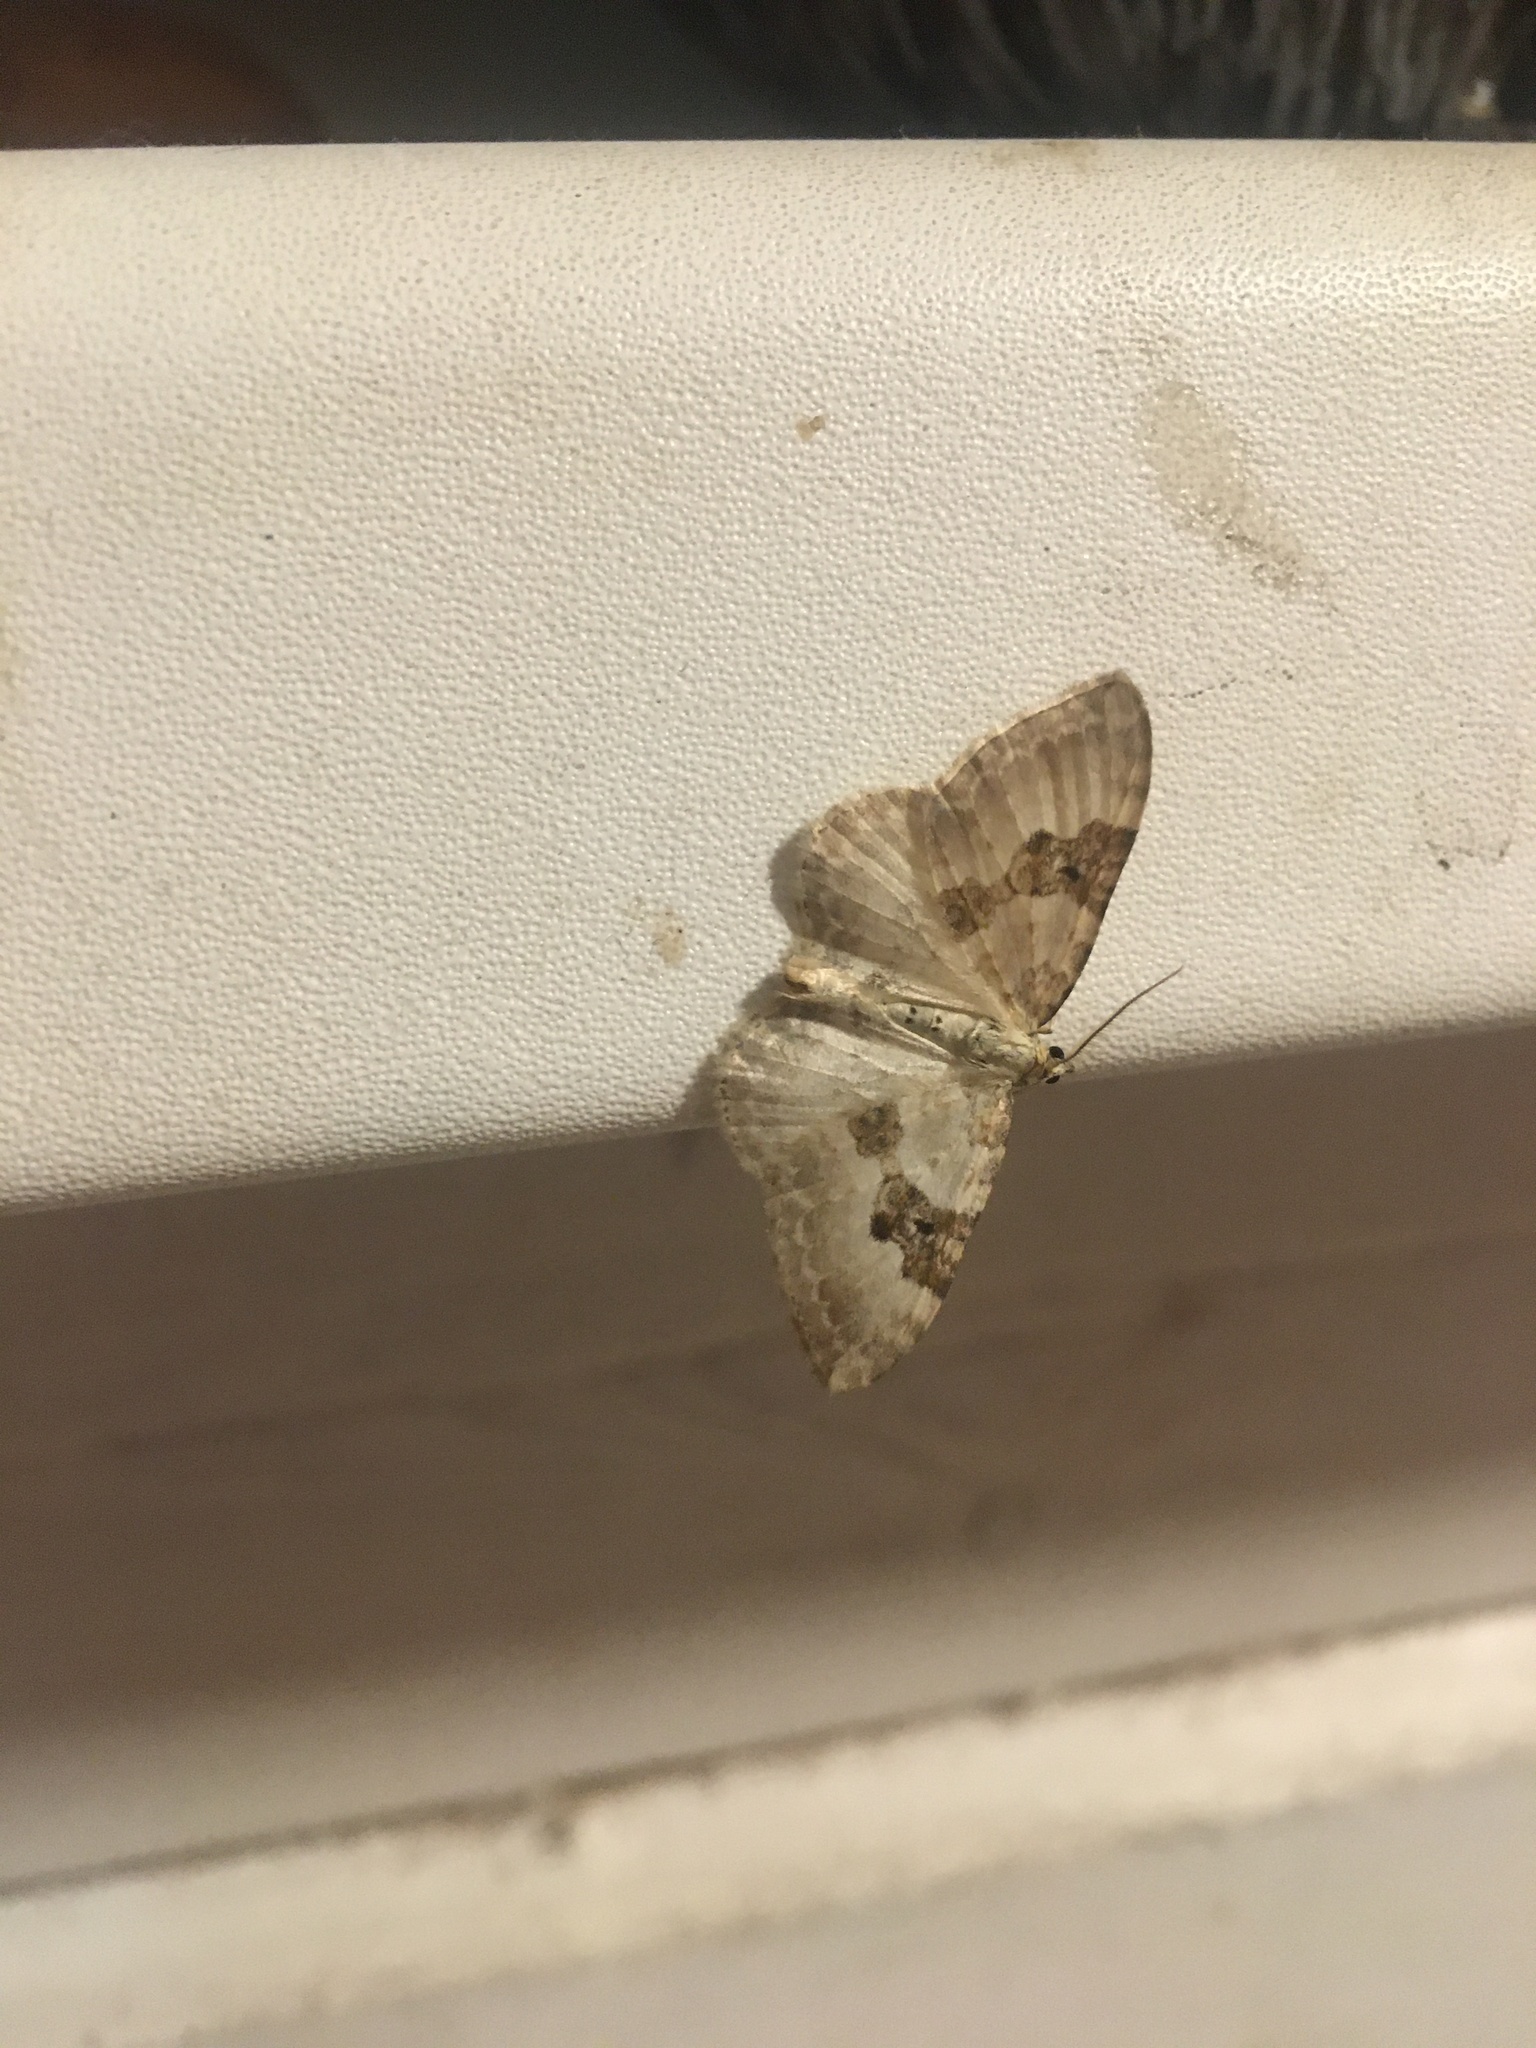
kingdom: Animalia
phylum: Arthropoda
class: Insecta
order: Lepidoptera
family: Geometridae
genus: Xanthorhoe
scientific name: Xanthorhoe montanata
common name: Silver-ground carpet
